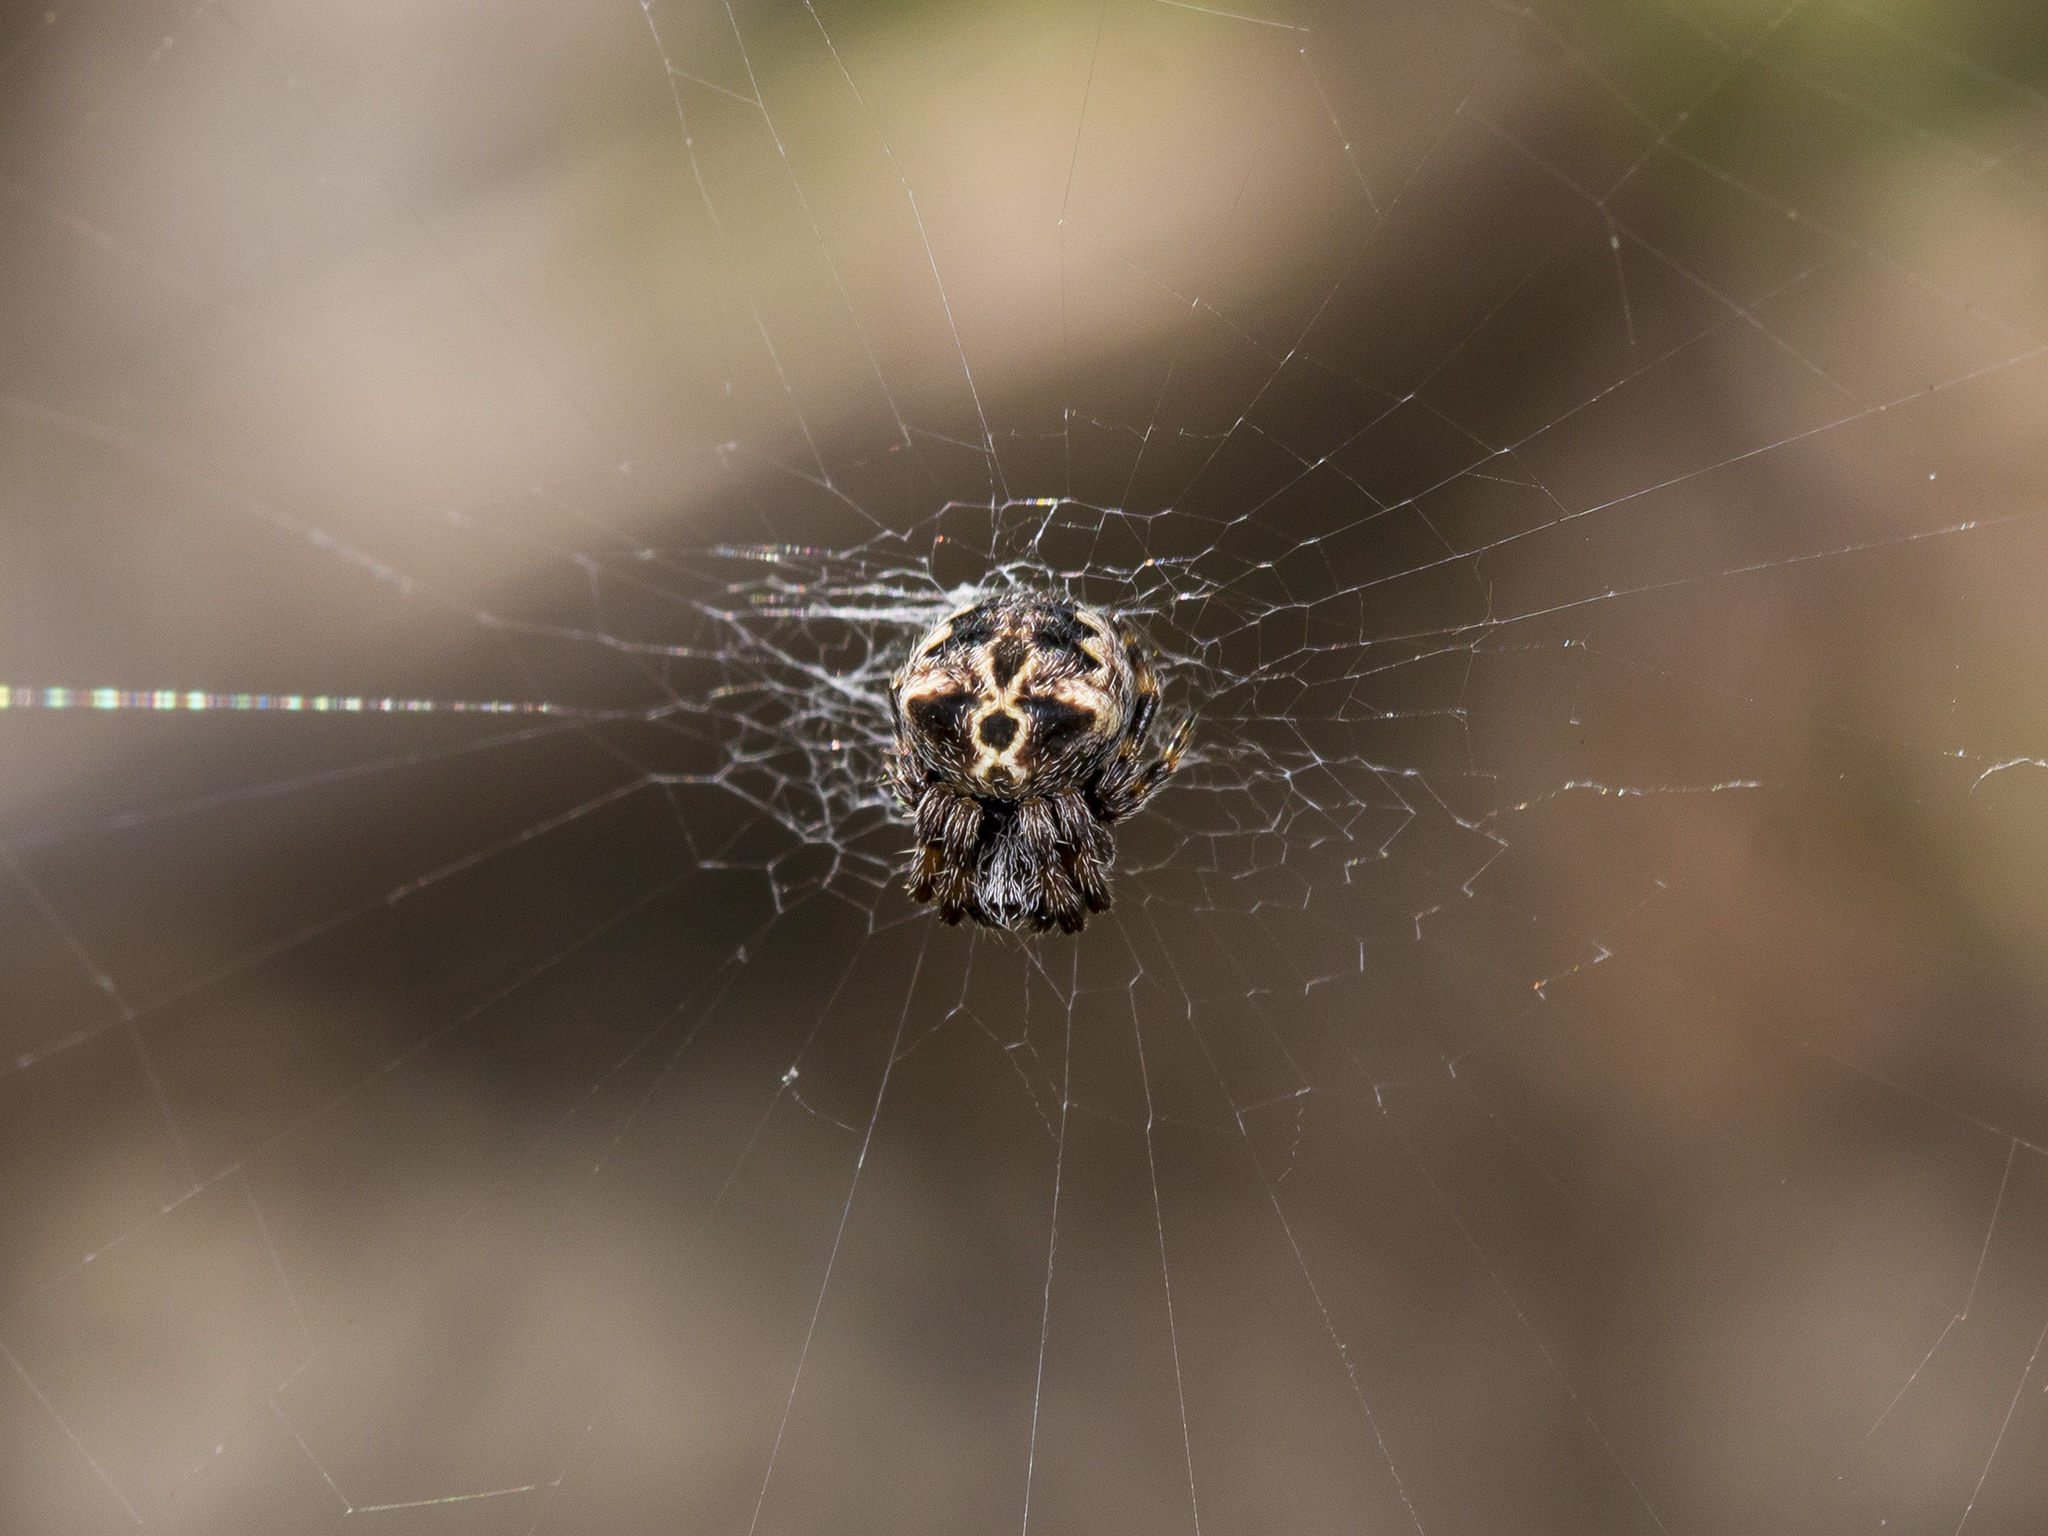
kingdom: Animalia
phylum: Arthropoda
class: Arachnida
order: Araneae
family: Araneidae
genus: Araneus
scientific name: Araneus grossus
